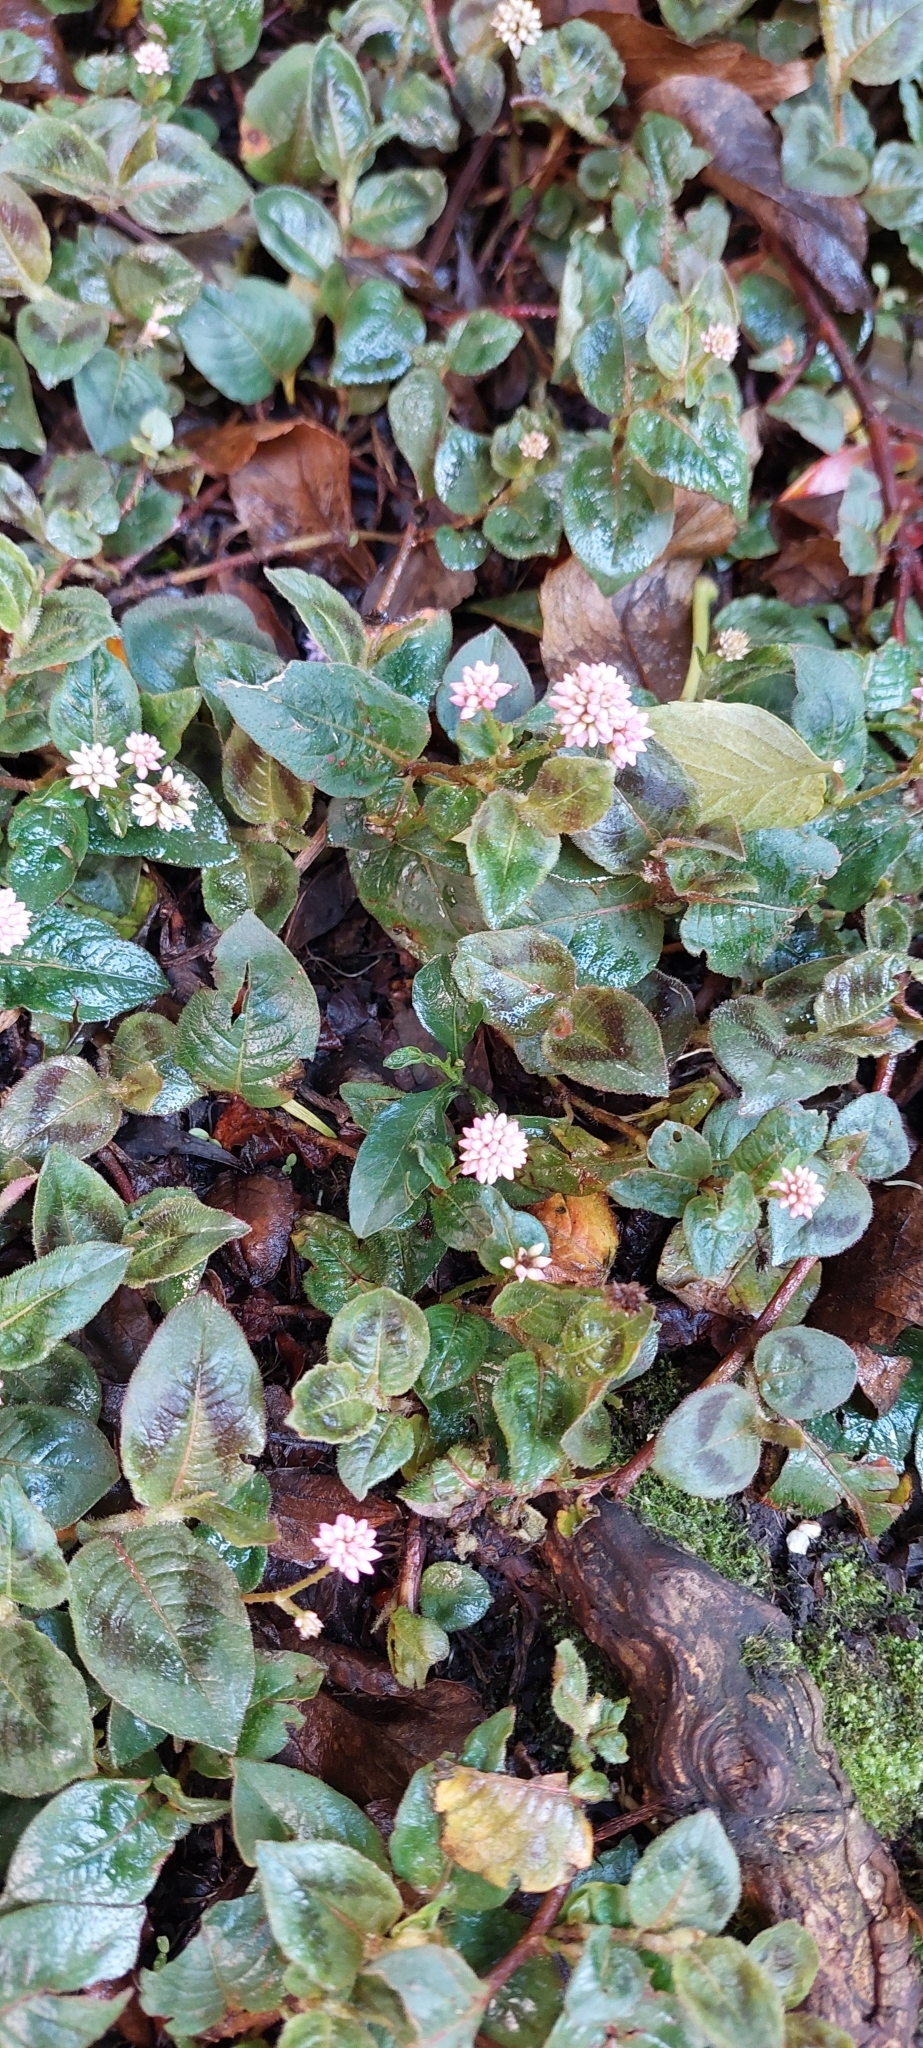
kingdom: Plantae
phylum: Tracheophyta
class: Magnoliopsida
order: Caryophyllales
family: Polygonaceae
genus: Persicaria
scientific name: Persicaria capitata
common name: Pinkhead smartweed
